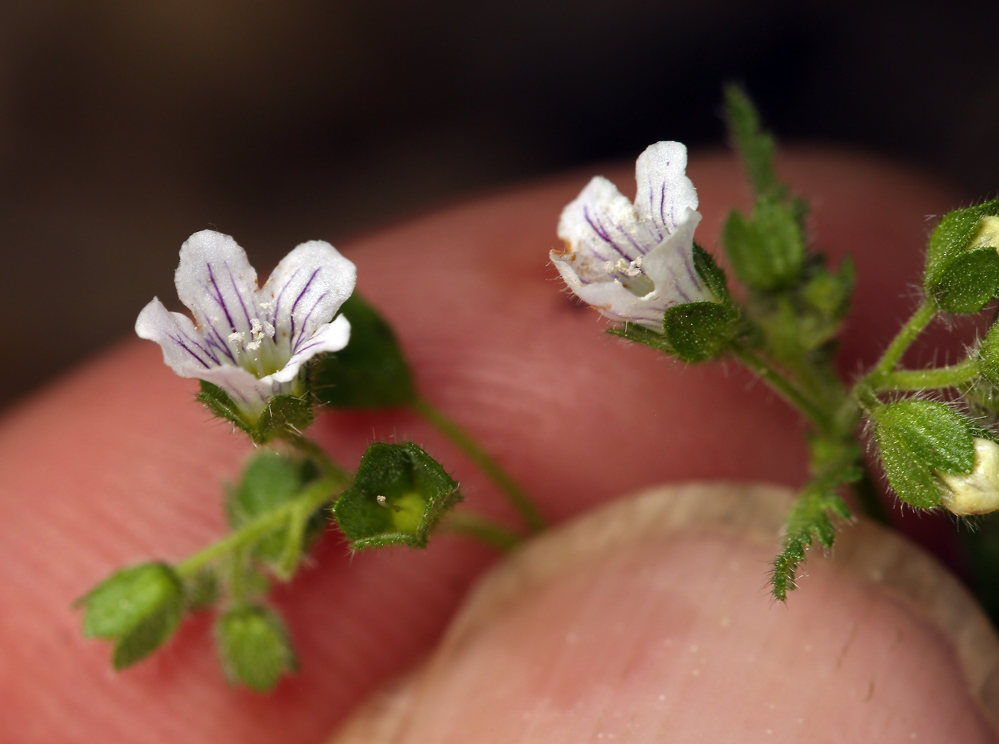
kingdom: Plantae
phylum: Tracheophyta
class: Magnoliopsida
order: Boraginales
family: Hydrophyllaceae
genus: Eucrypta
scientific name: Eucrypta chrysanthemifolia
